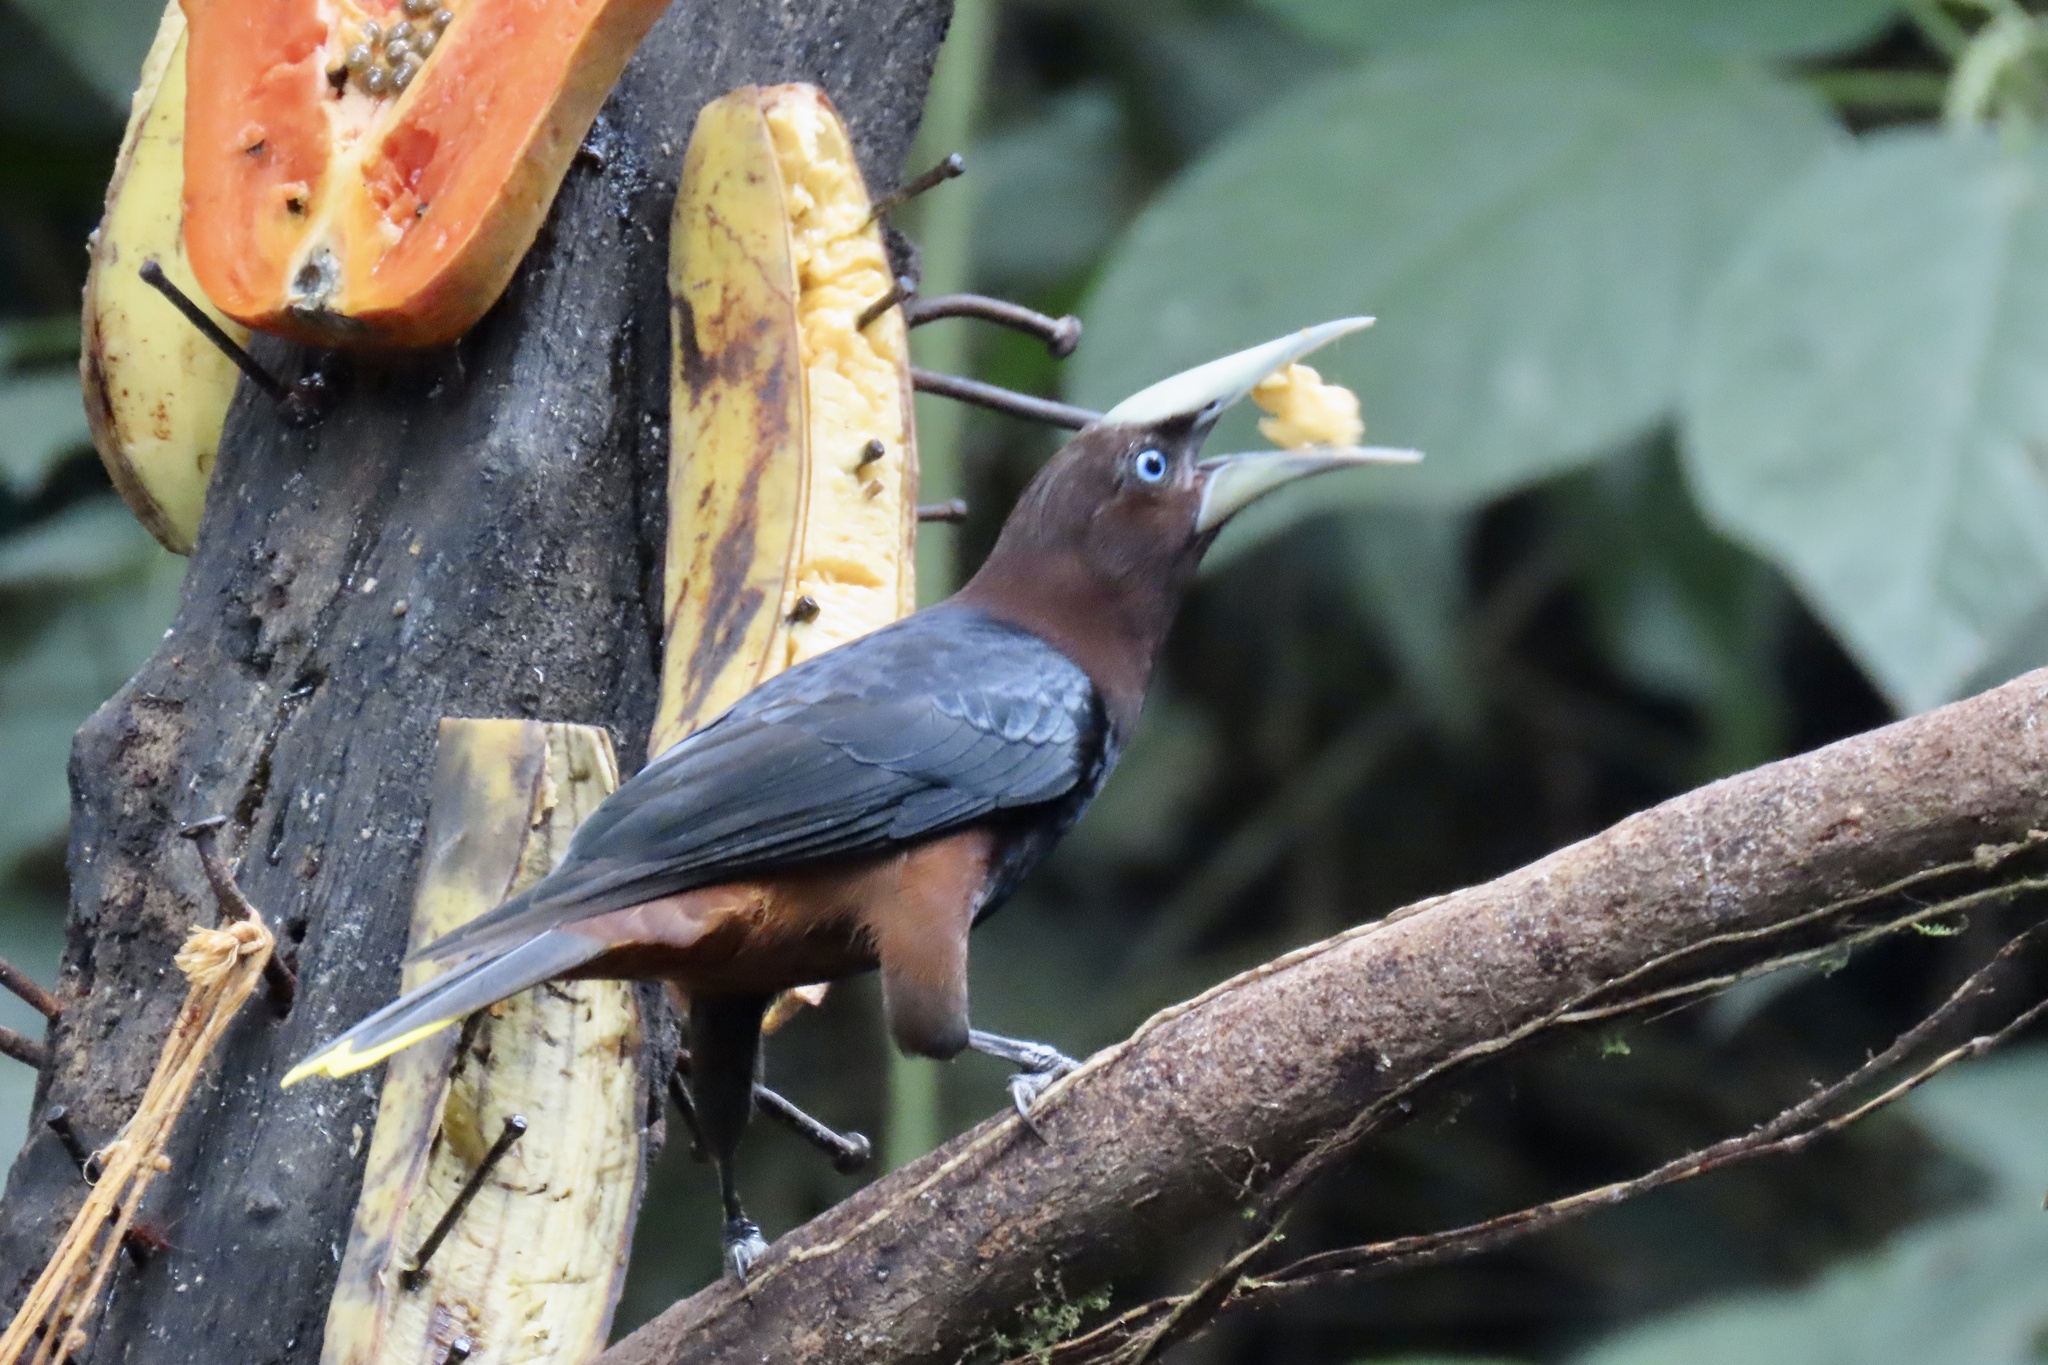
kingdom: Animalia
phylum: Chordata
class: Aves
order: Passeriformes
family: Icteridae
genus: Psarocolius
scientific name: Psarocolius wagleri
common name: Chestnut-headed oropendola
